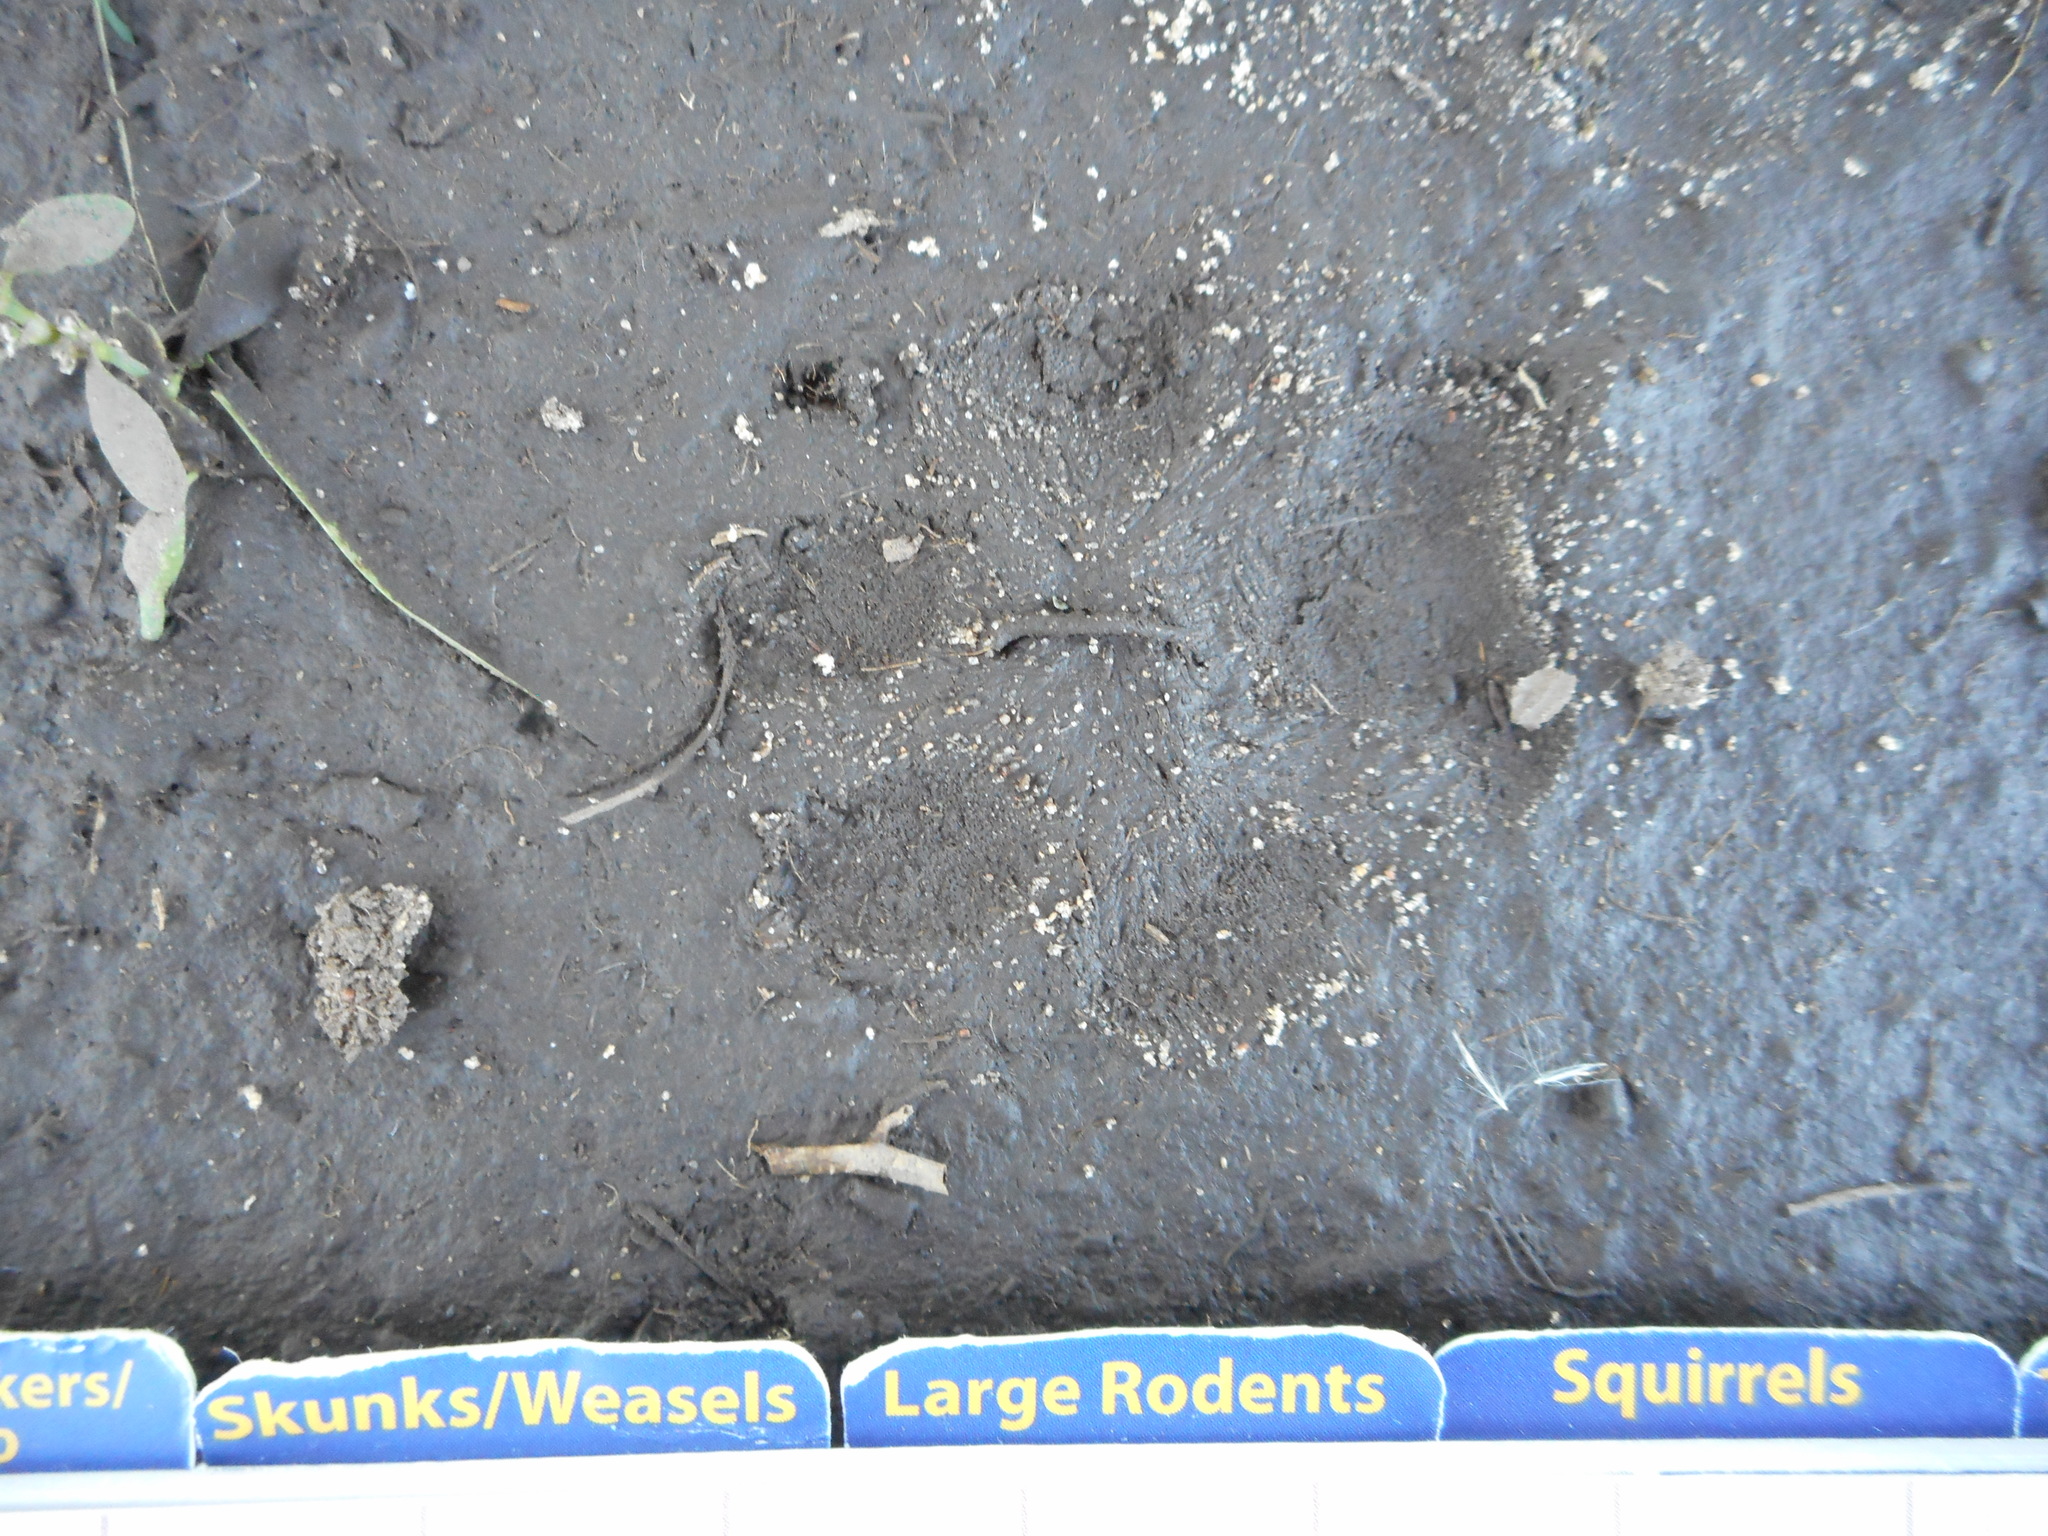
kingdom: Animalia
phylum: Chordata
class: Mammalia
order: Carnivora
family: Canidae
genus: Urocyon
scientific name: Urocyon cinereoargenteus
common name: Gray fox
